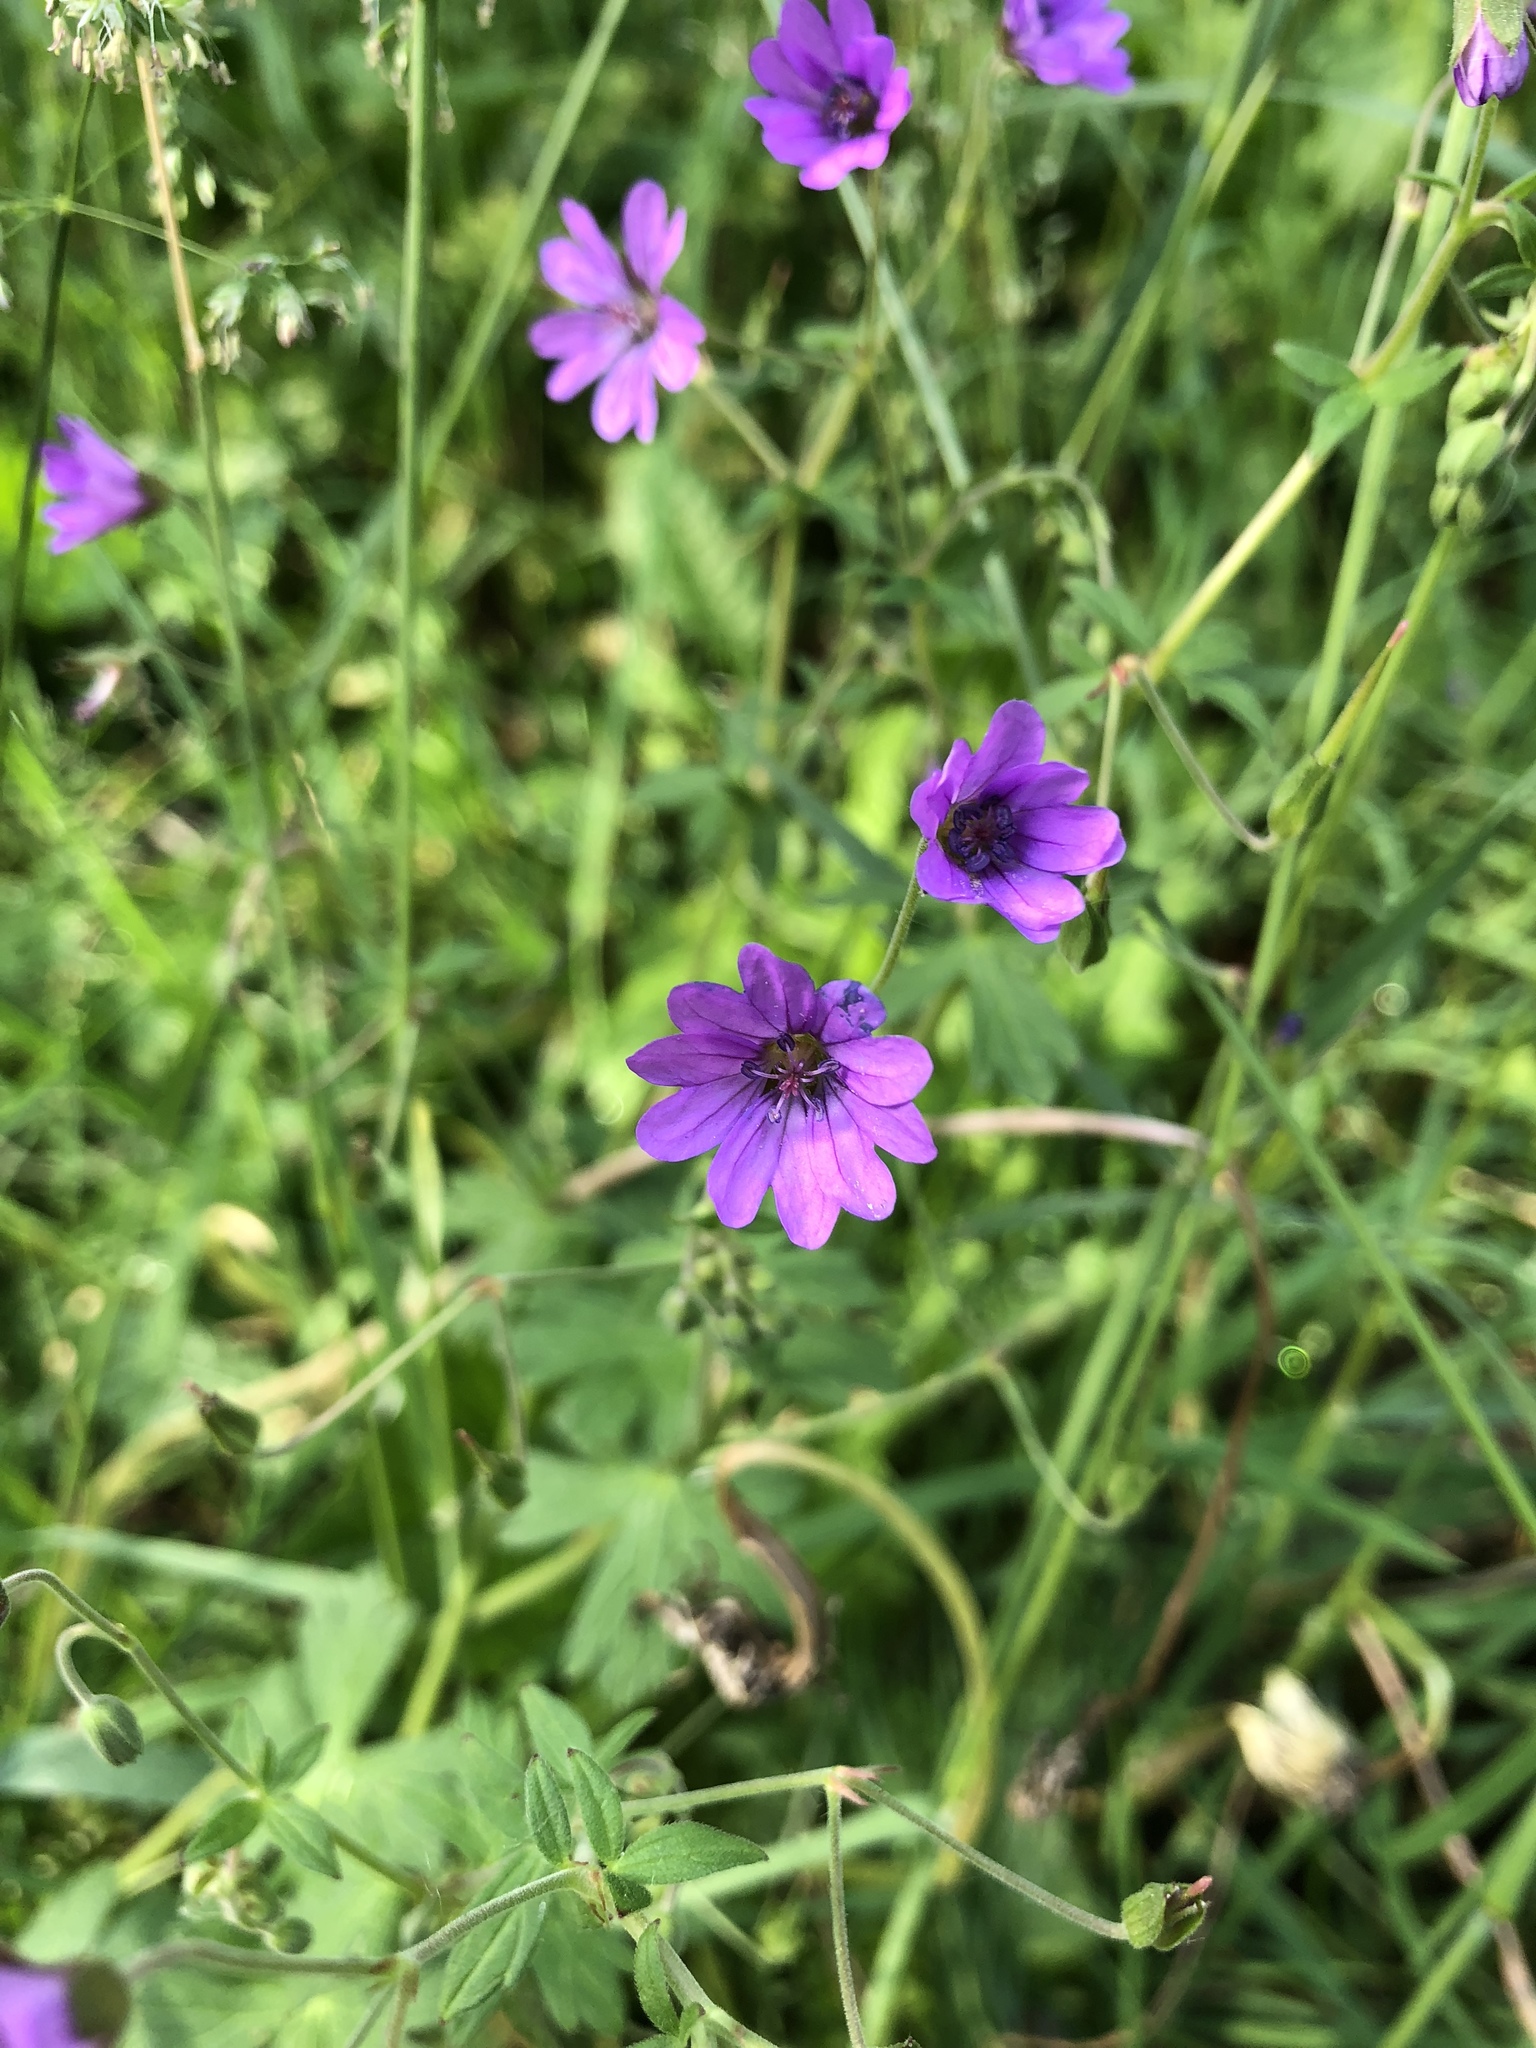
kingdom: Plantae
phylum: Tracheophyta
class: Magnoliopsida
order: Geraniales
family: Geraniaceae
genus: Geranium
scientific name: Geranium molle
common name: Dove's-foot crane's-bill
